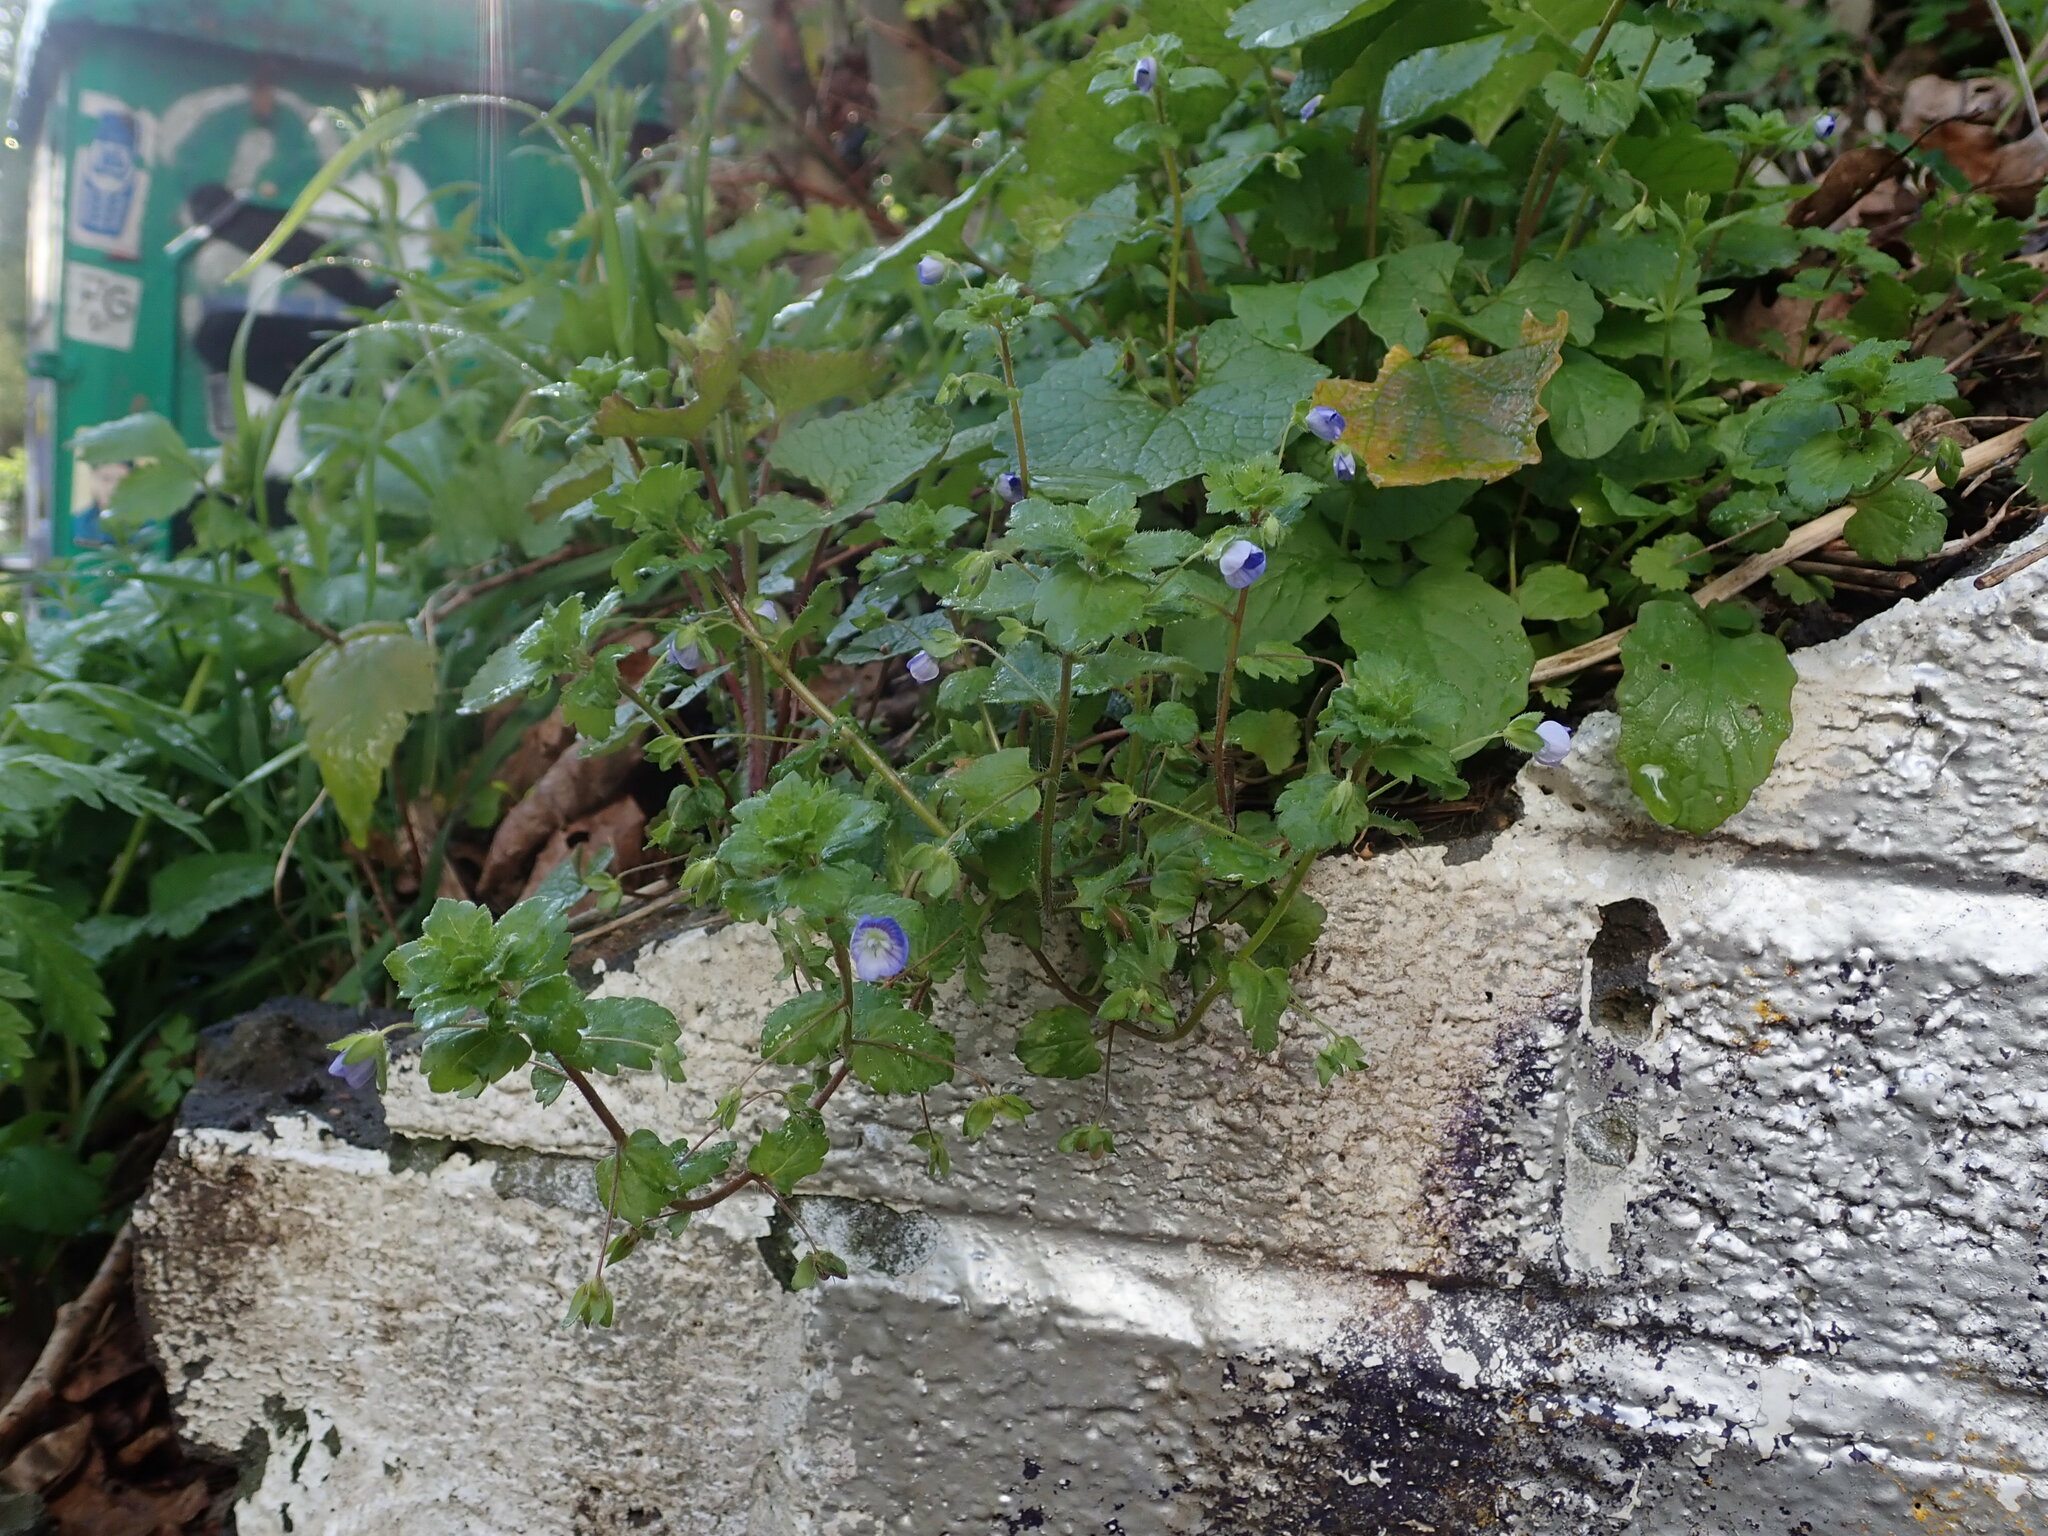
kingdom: Plantae
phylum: Tracheophyta
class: Magnoliopsida
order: Lamiales
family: Plantaginaceae
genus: Veronica
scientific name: Veronica persica
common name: Common field-speedwell
